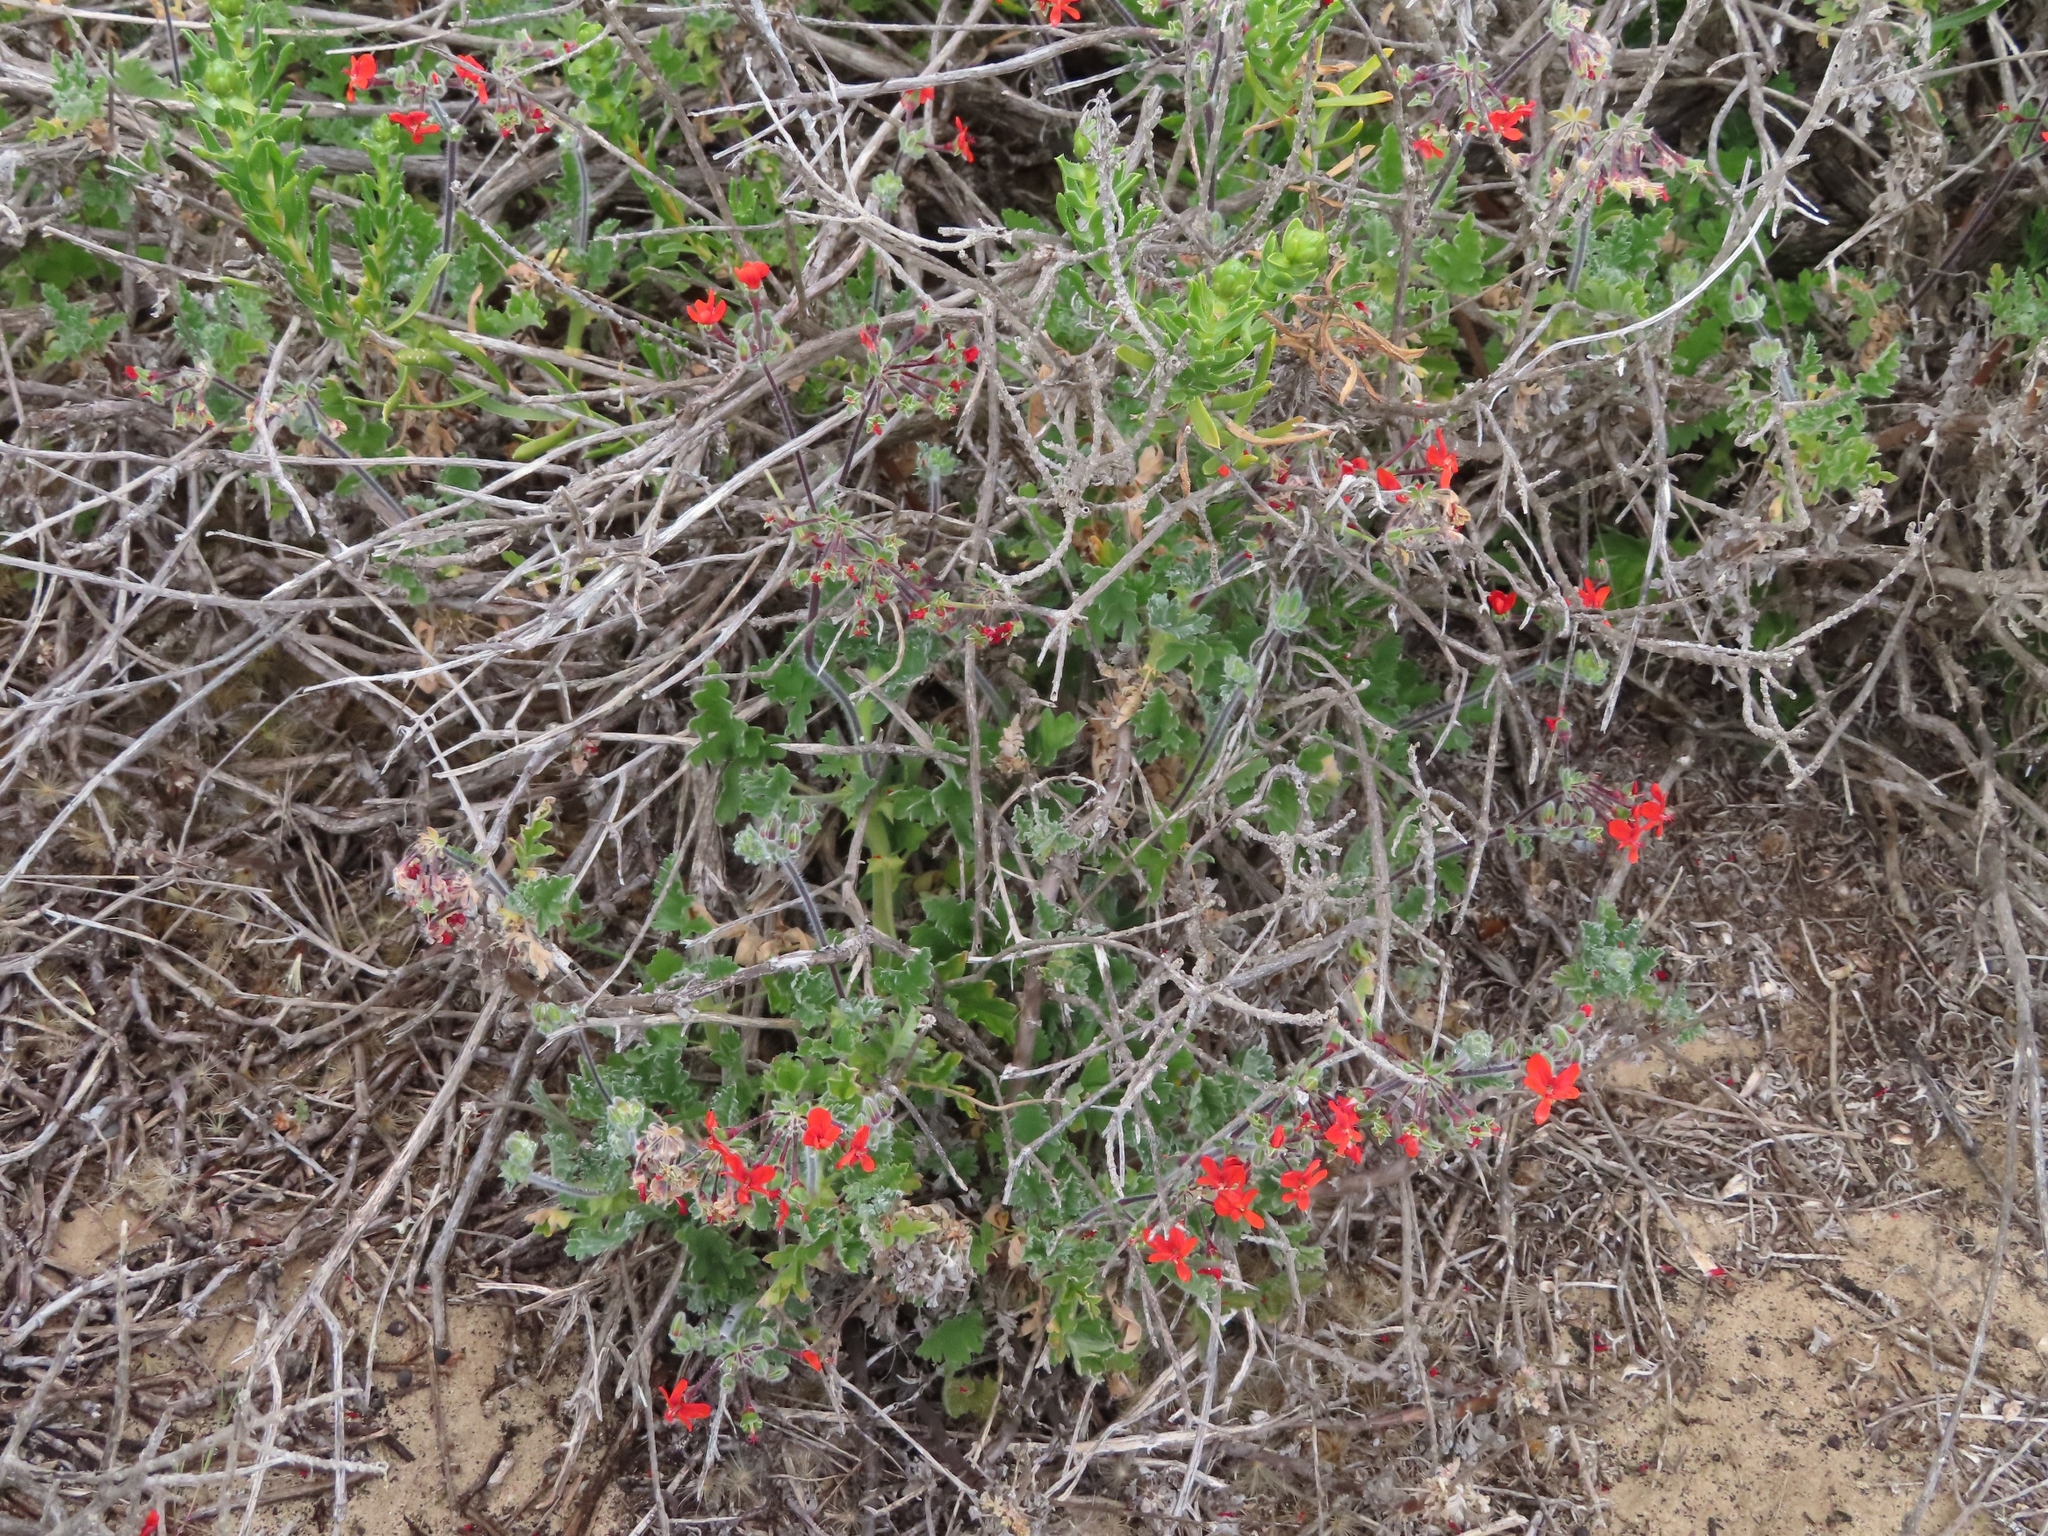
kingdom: Plantae
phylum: Tracheophyta
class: Magnoliopsida
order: Geraniales
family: Geraniaceae
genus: Pelargonium
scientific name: Pelargonium fulgidum
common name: Celandine-leaf pelargonium
